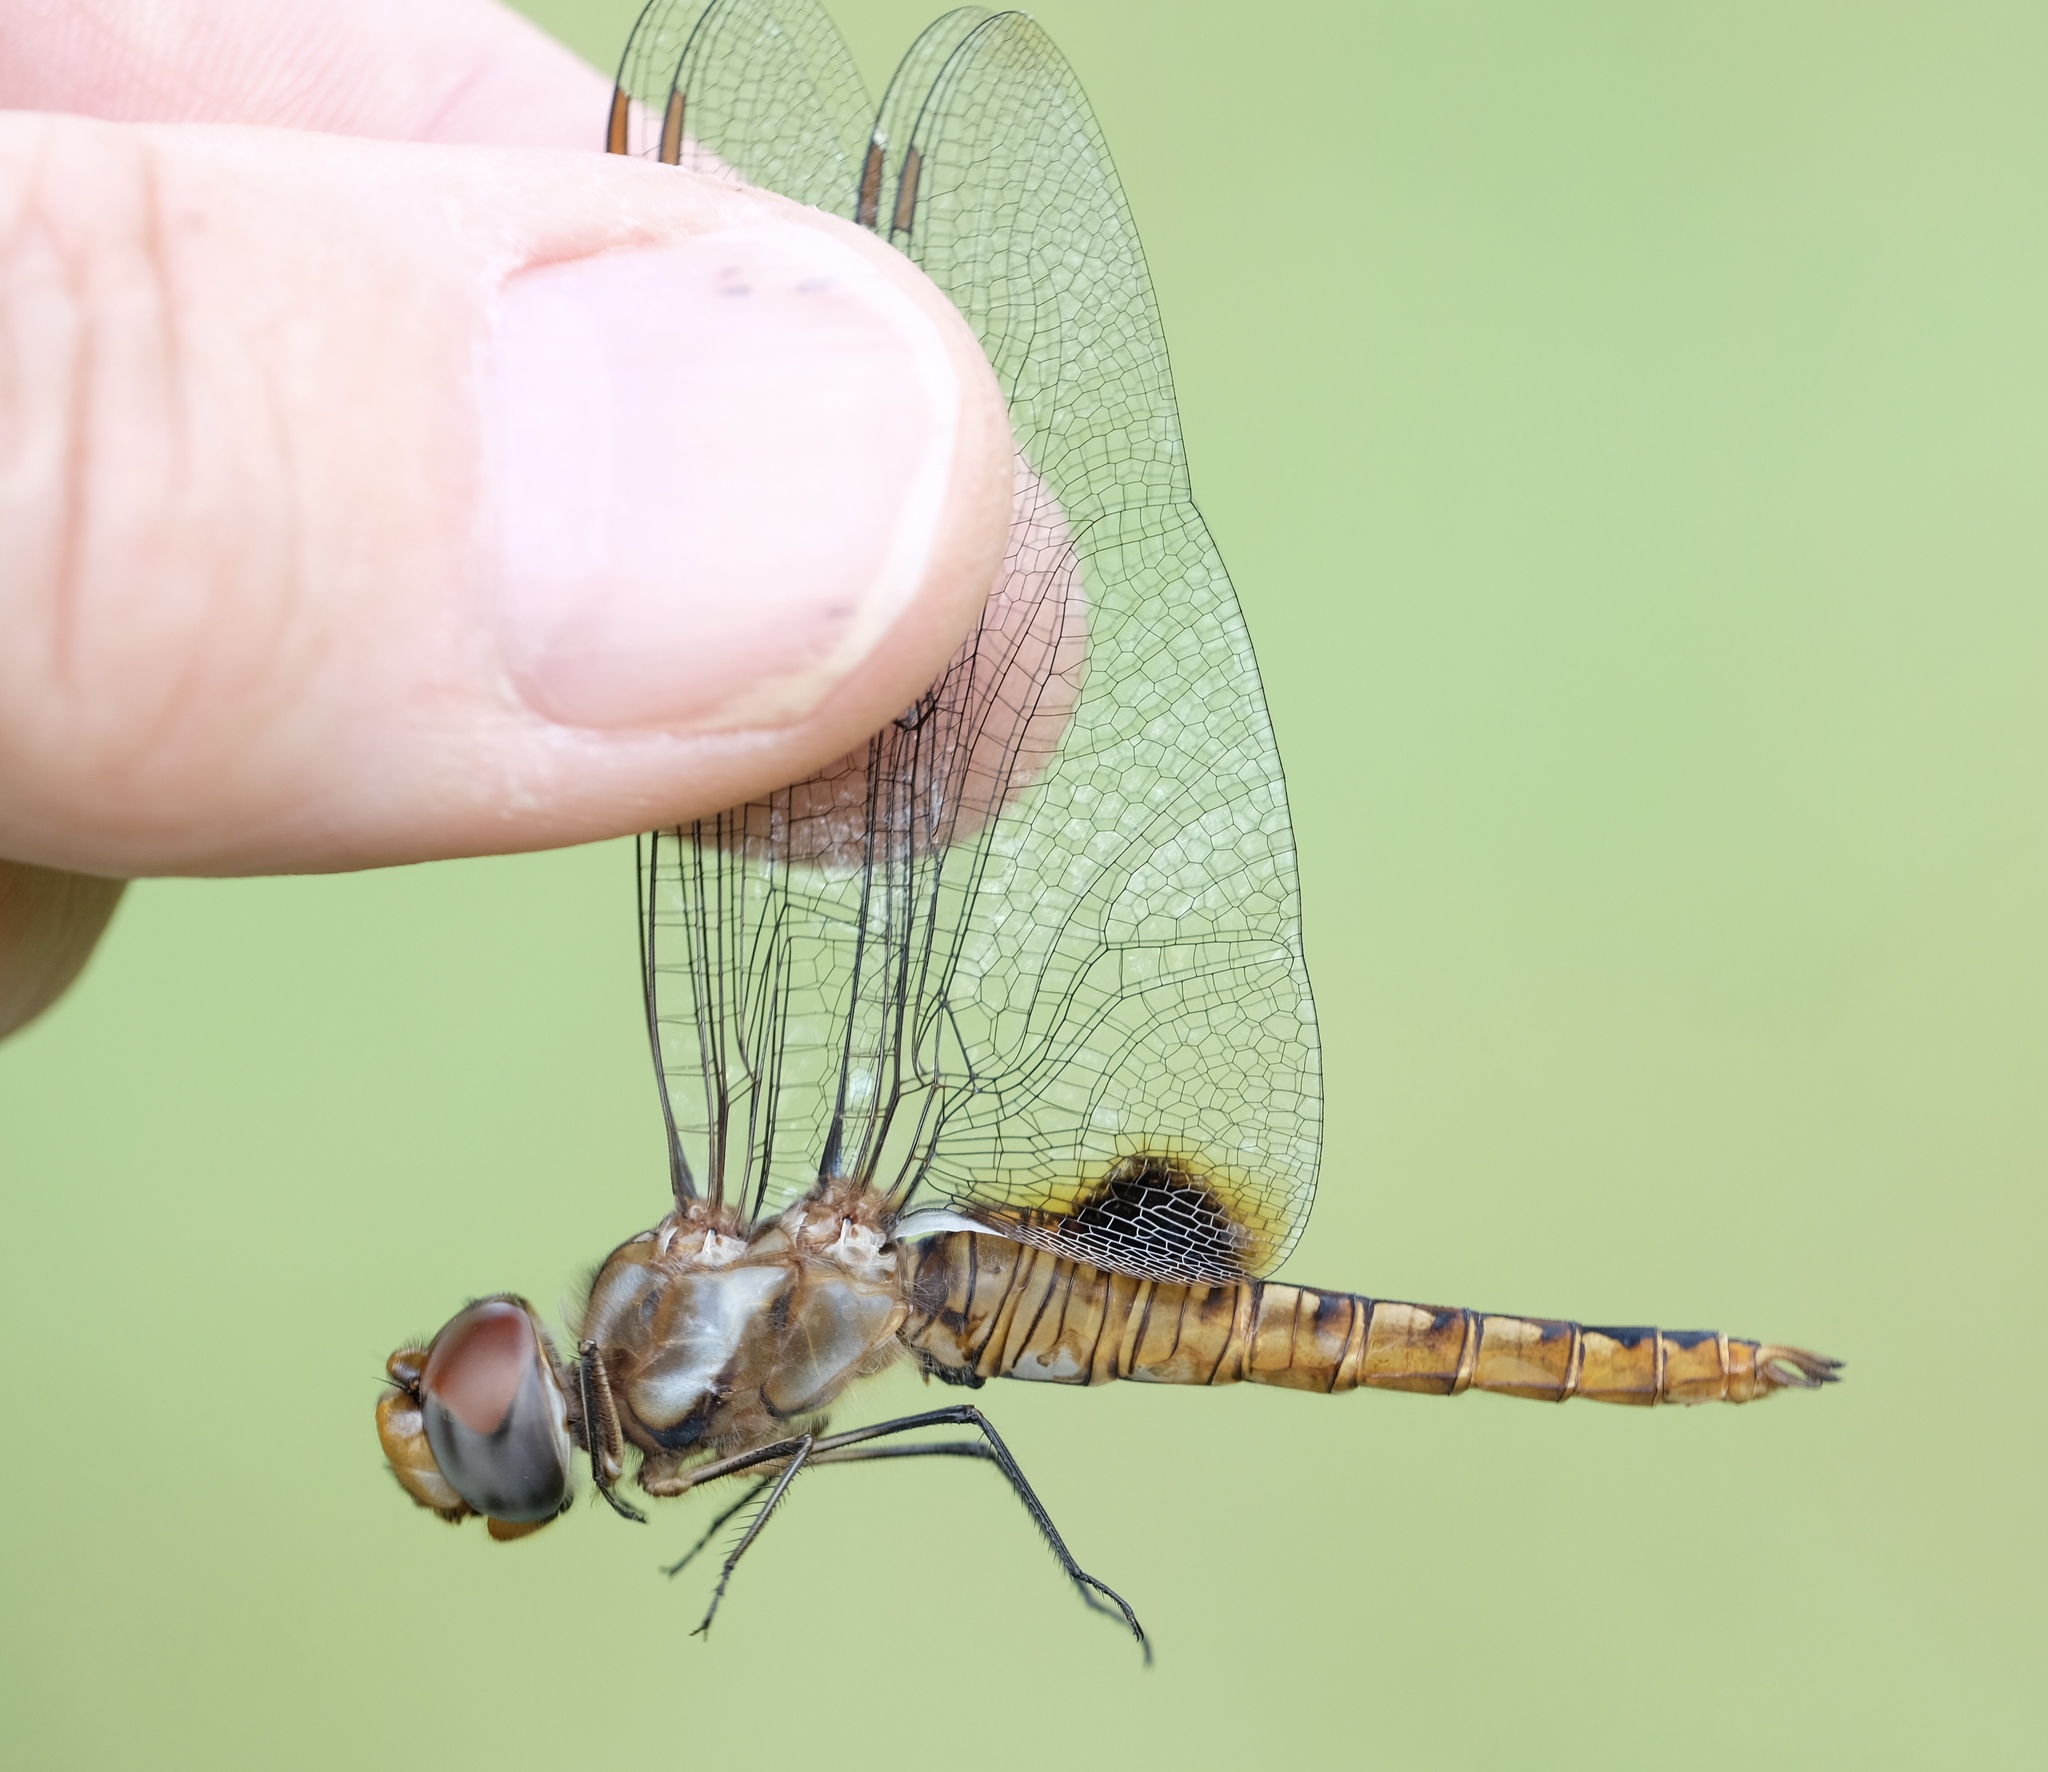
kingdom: Animalia
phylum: Arthropoda
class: Insecta
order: Odonata
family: Libellulidae
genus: Pantala
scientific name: Pantala hymenaea
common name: Spot-winged glider
